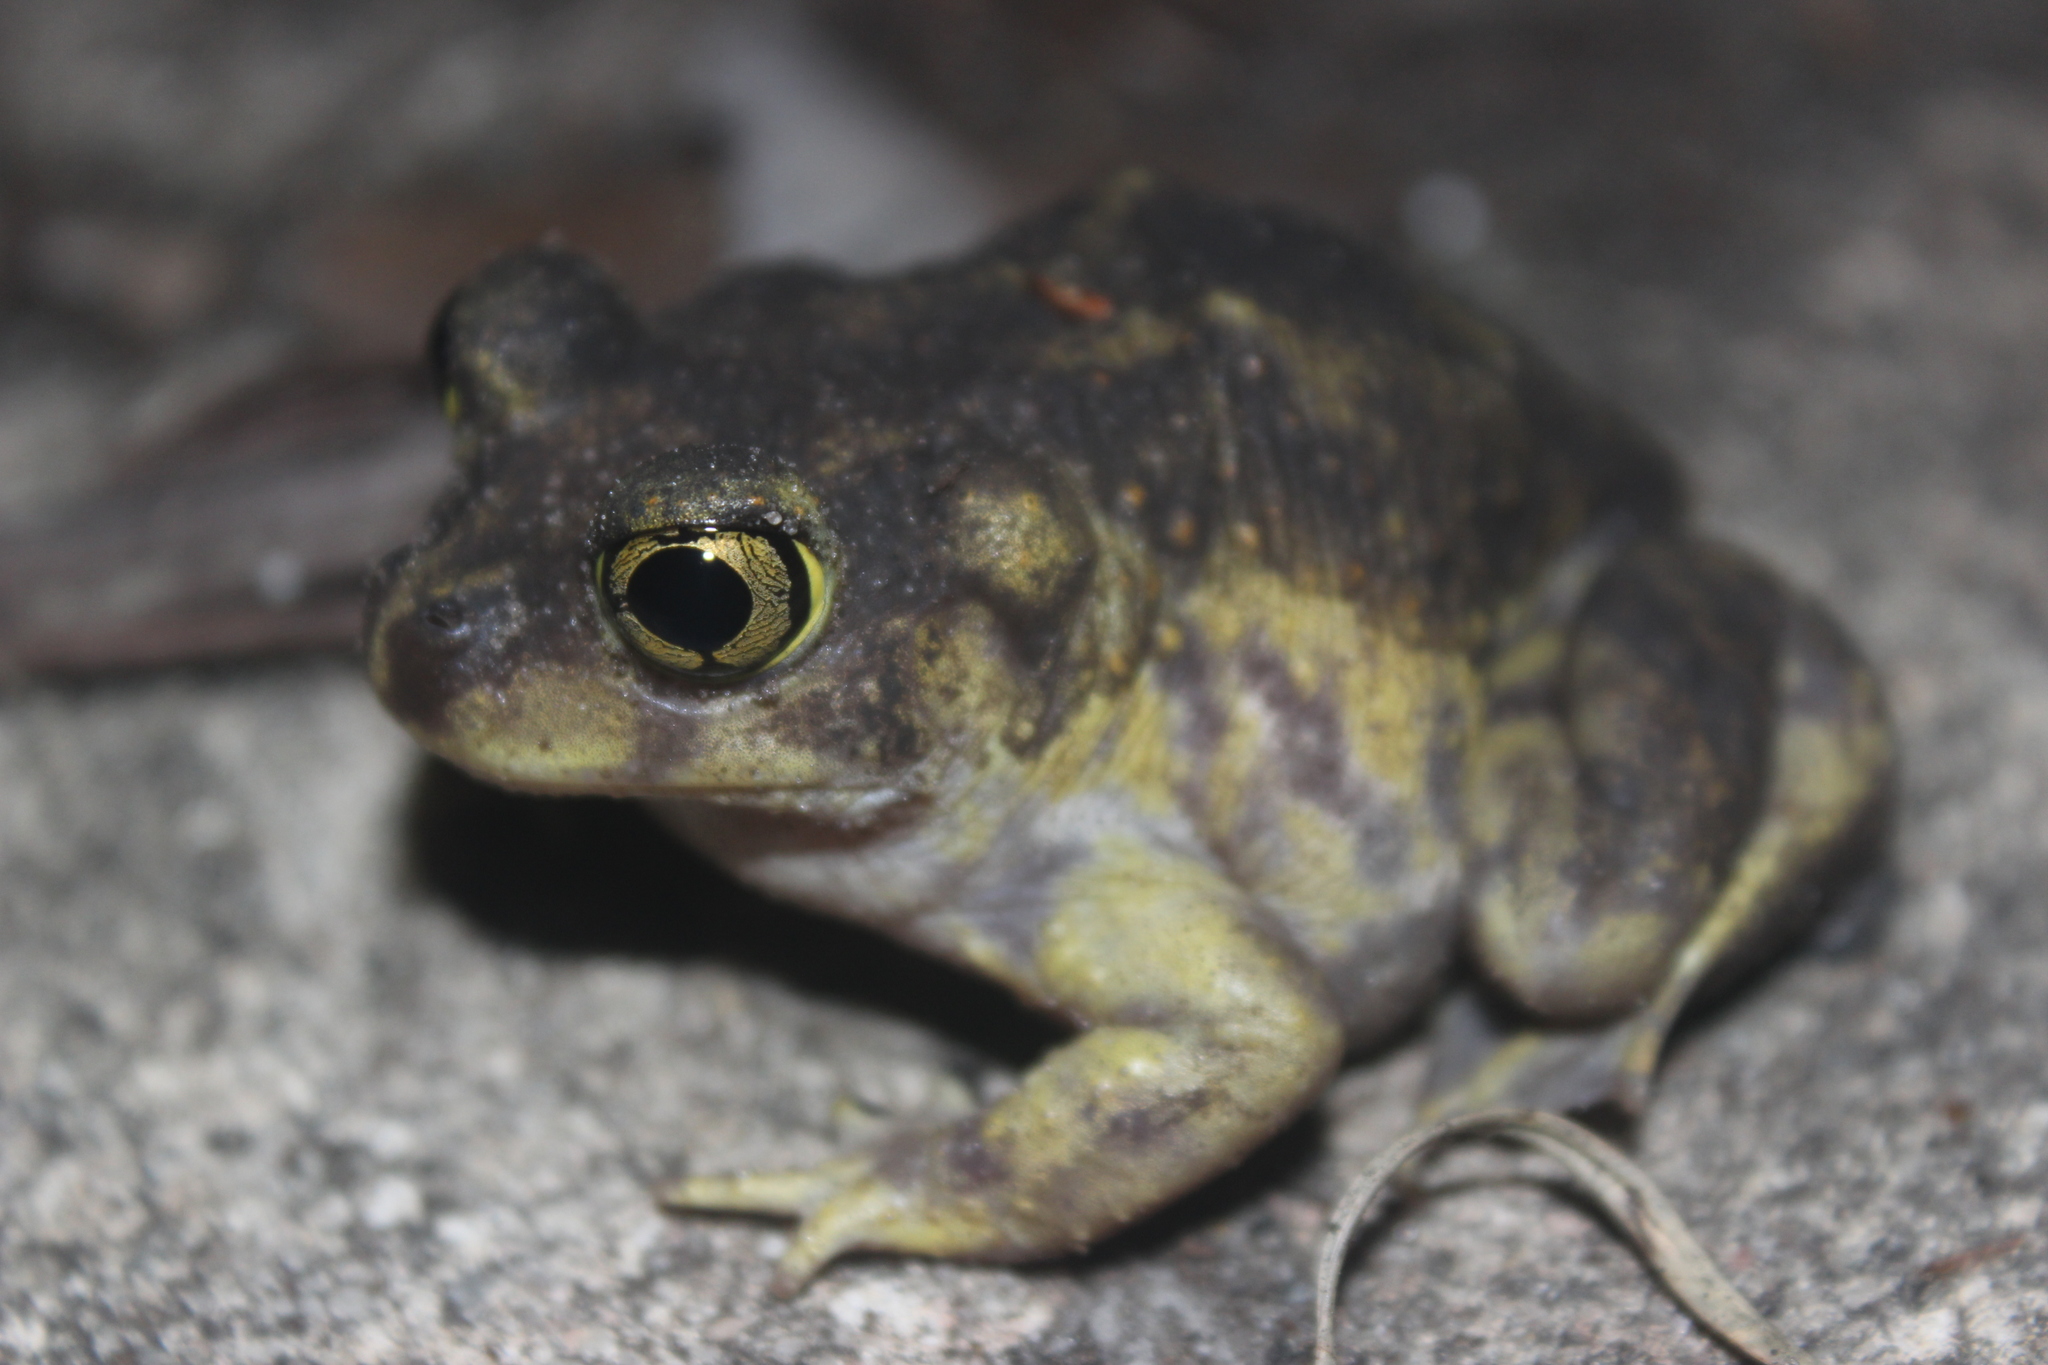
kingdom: Animalia
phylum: Chordata
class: Amphibia
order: Anura
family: Scaphiopodidae
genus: Scaphiopus
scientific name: Scaphiopus holbrookii
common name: Eastern spadefoot toad
